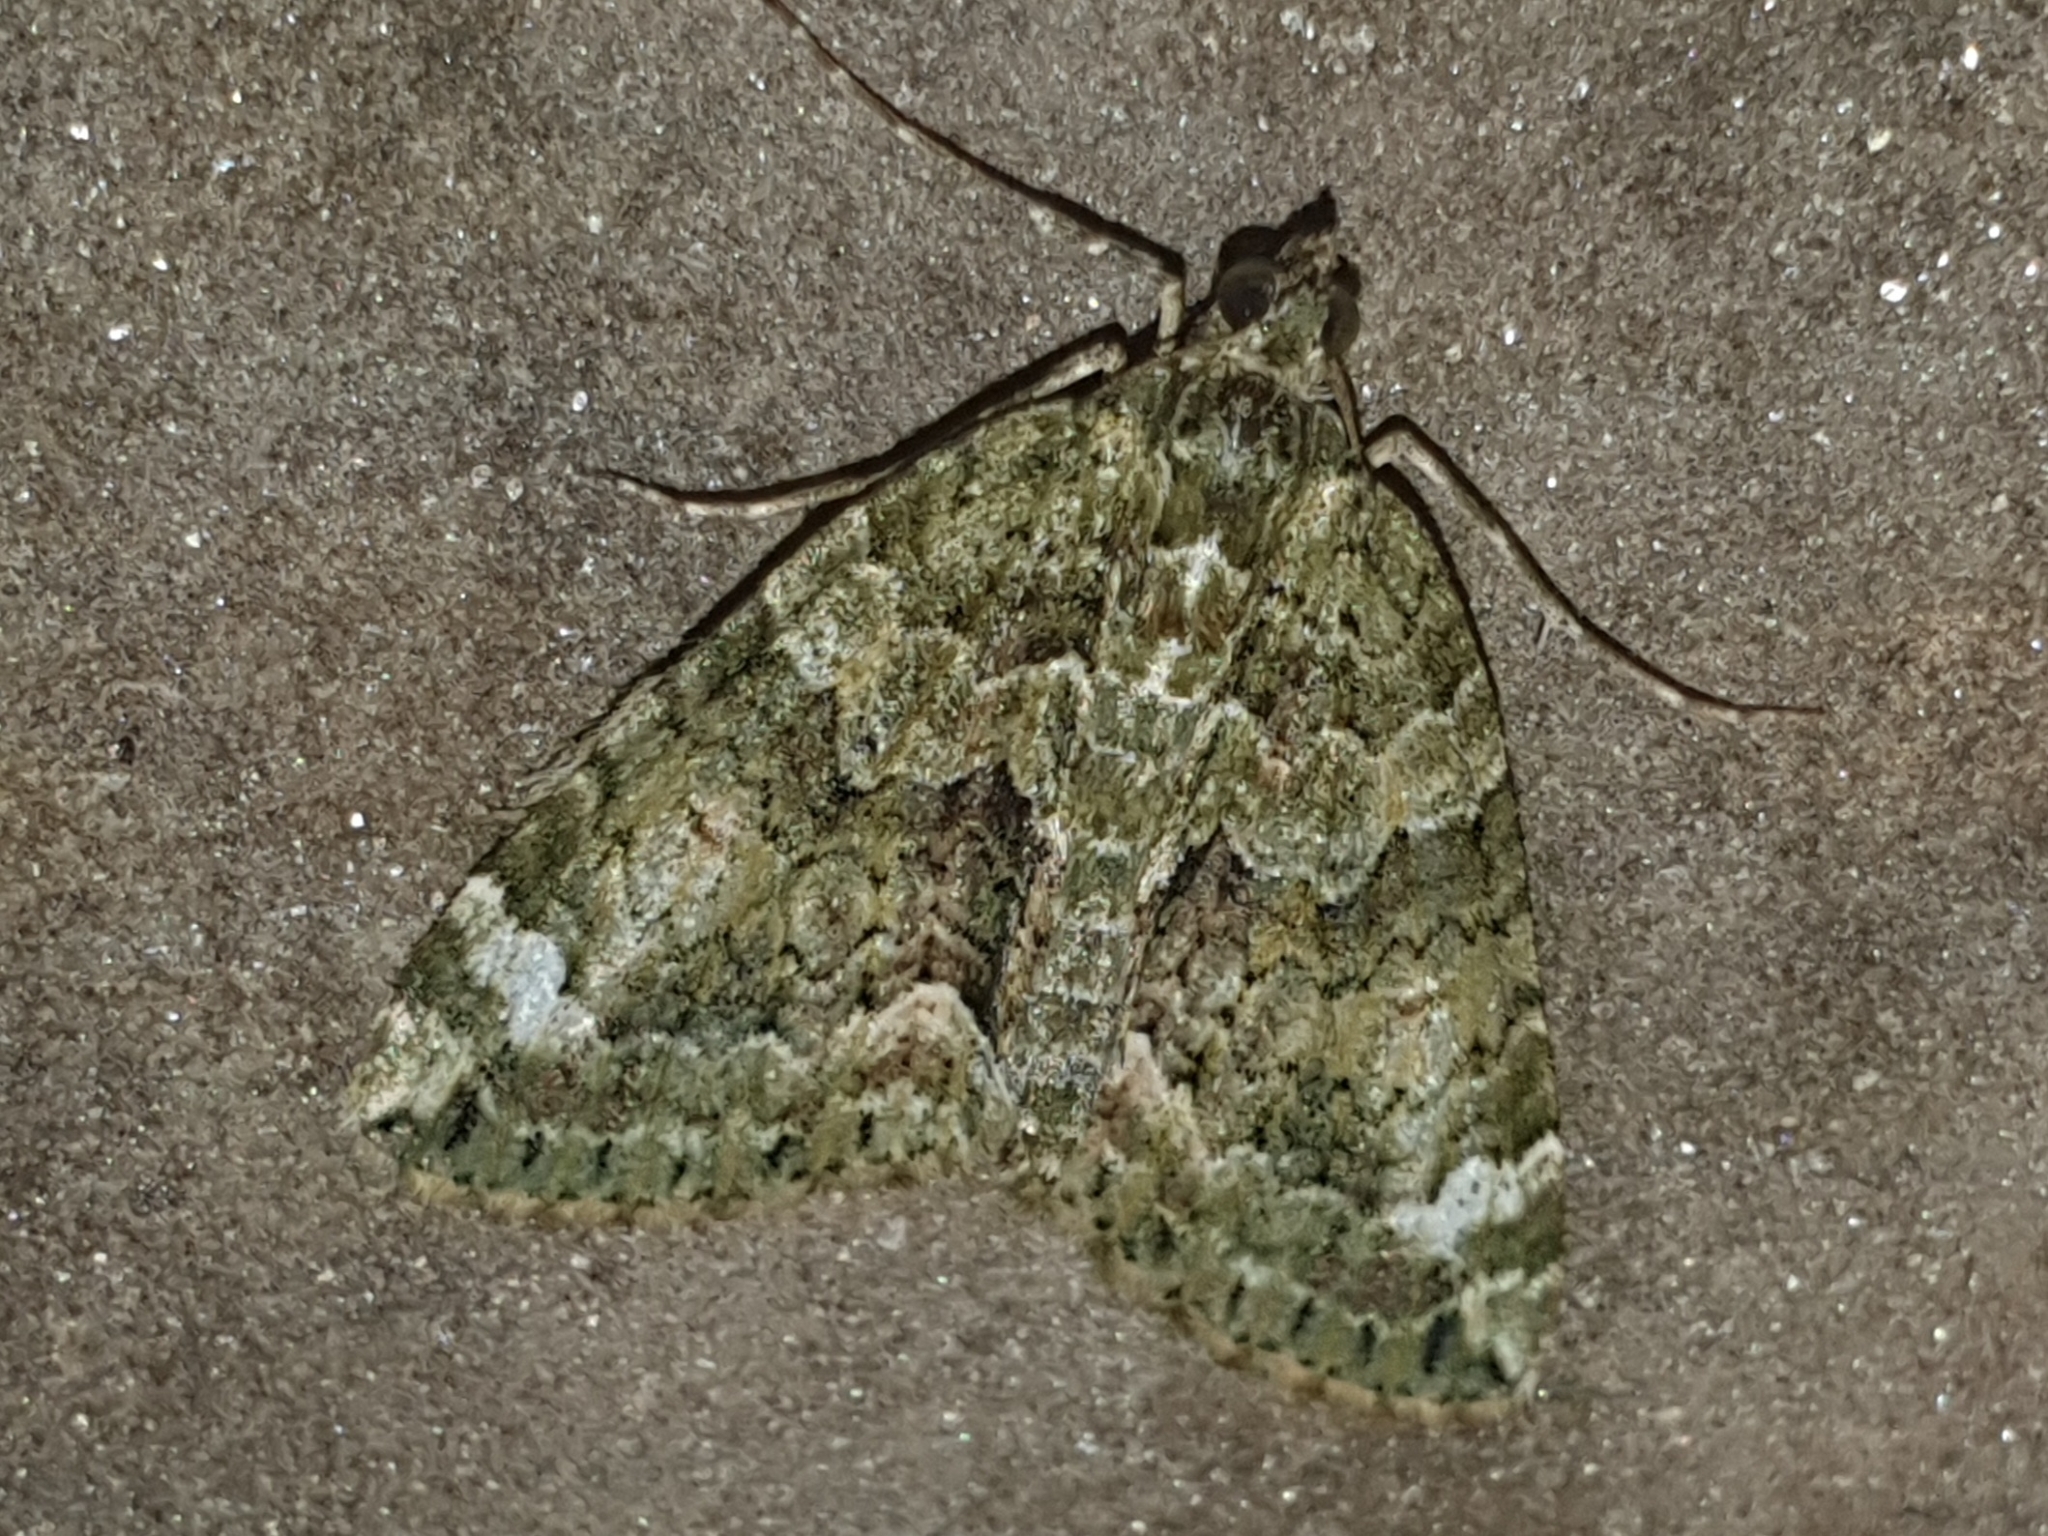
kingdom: Animalia
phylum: Arthropoda
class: Insecta
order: Lepidoptera
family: Geometridae
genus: Chloroclysta
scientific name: Chloroclysta siterata
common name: Red-green carpet
